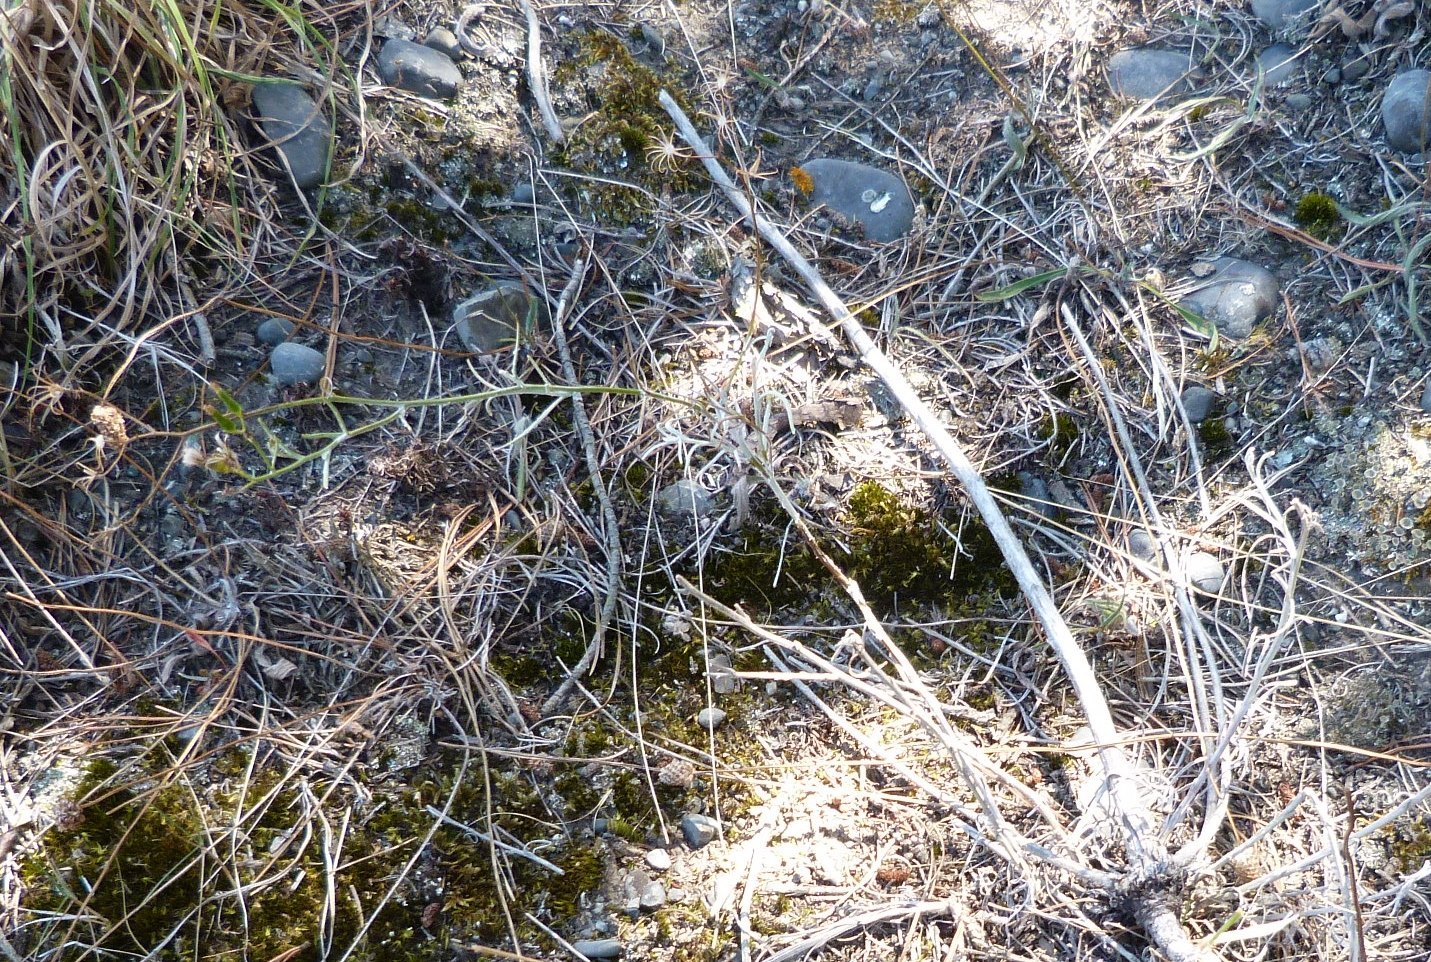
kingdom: Plantae
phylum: Tracheophyta
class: Magnoliopsida
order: Asterales
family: Asteraceae
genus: Senecio
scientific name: Senecio quadridentatus
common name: Cotton fireweed
